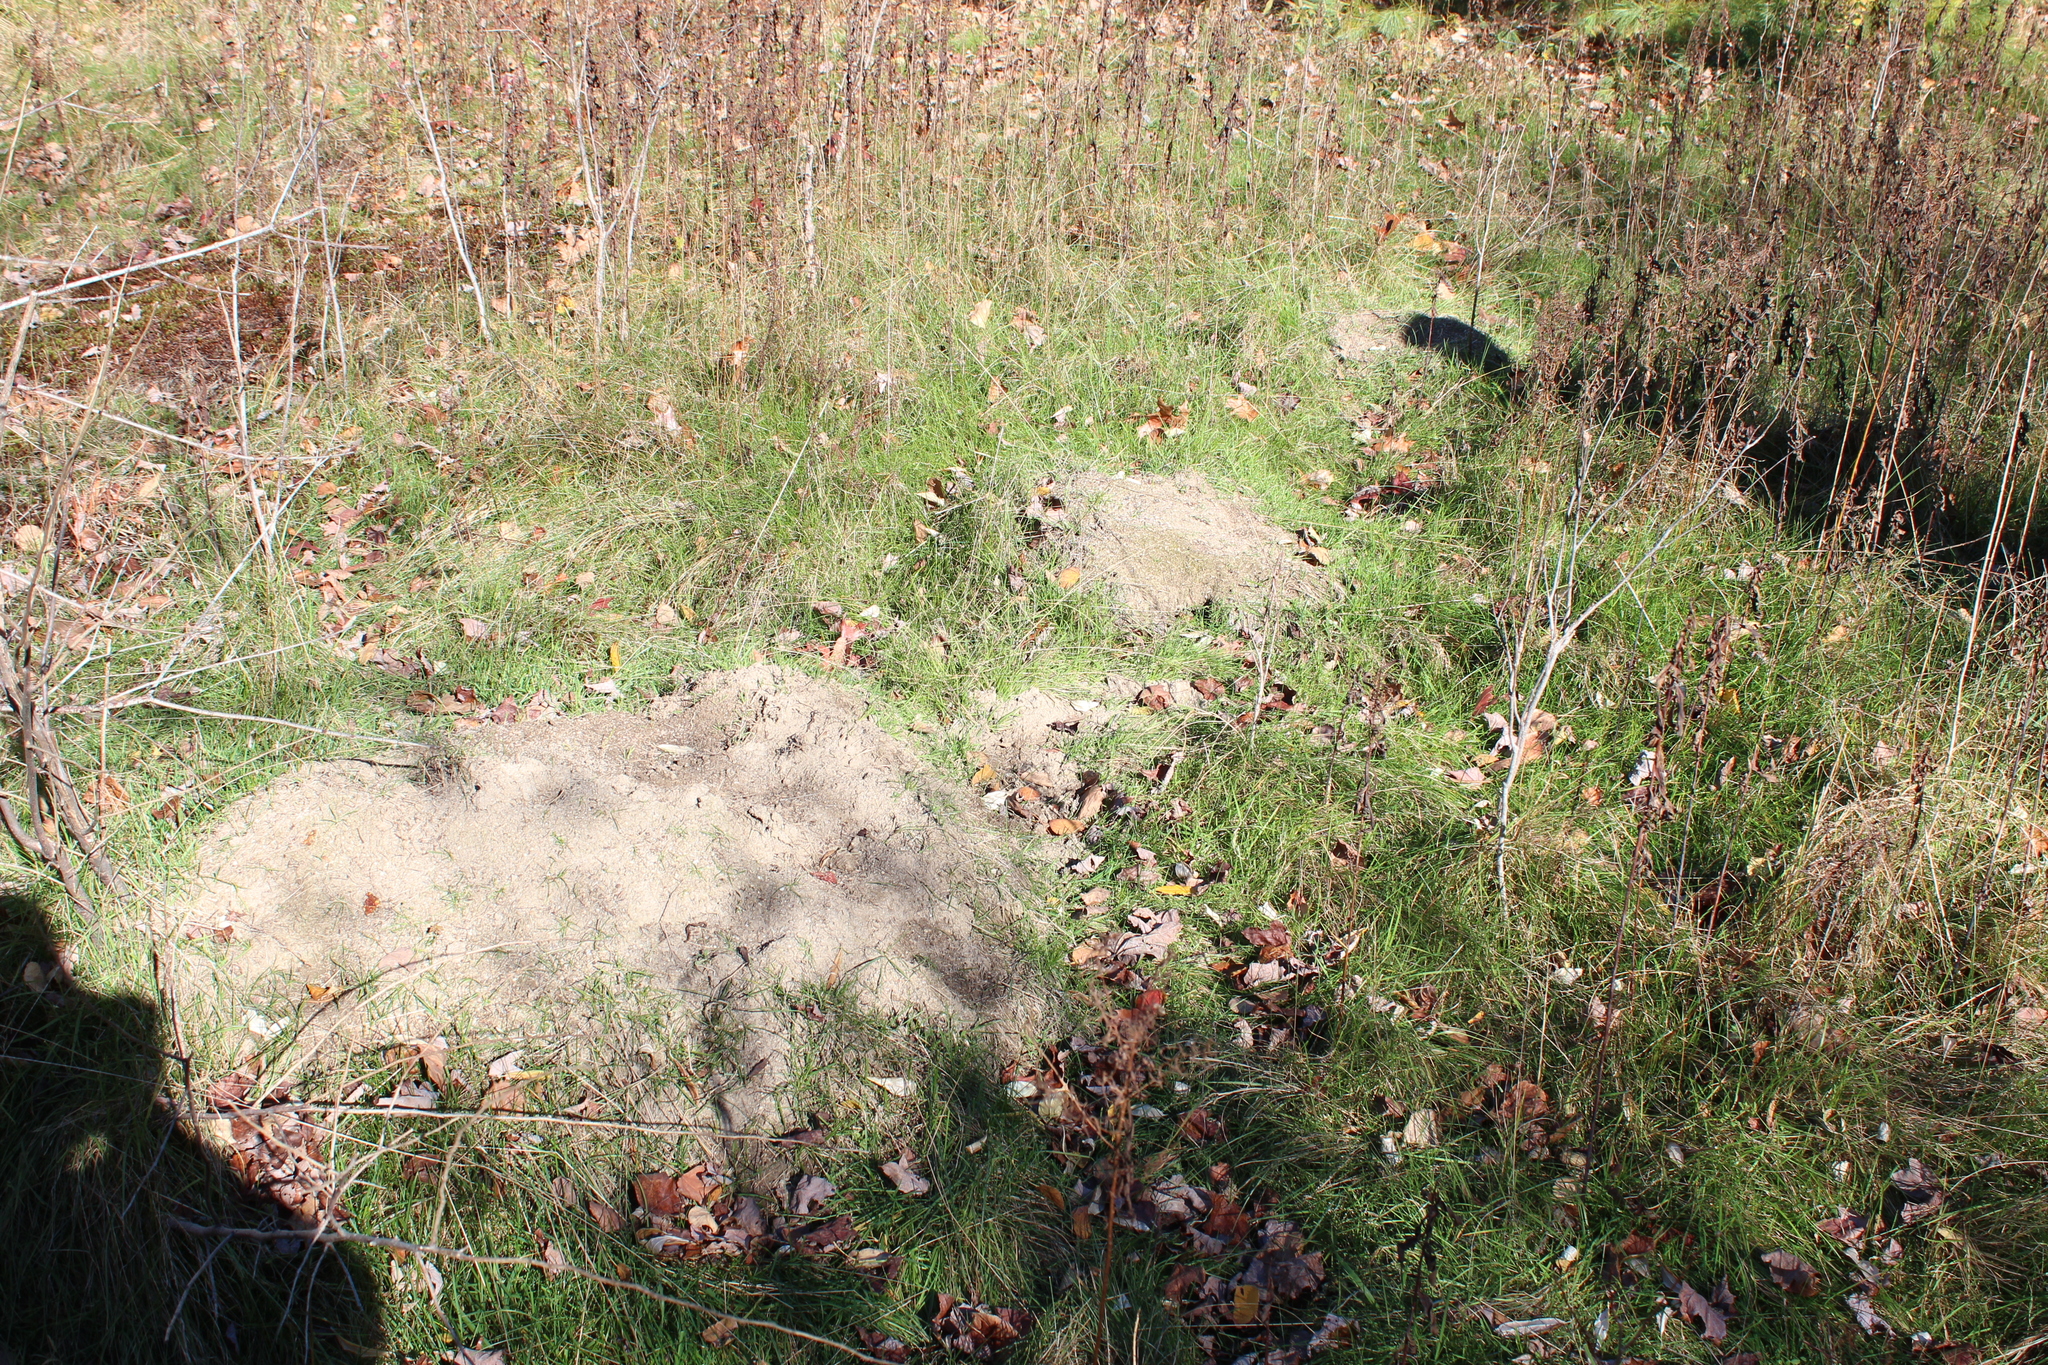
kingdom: Animalia
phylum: Arthropoda
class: Insecta
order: Hymenoptera
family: Formicidae
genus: Formica
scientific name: Formica exsectoides
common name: Allegheny mound ant
